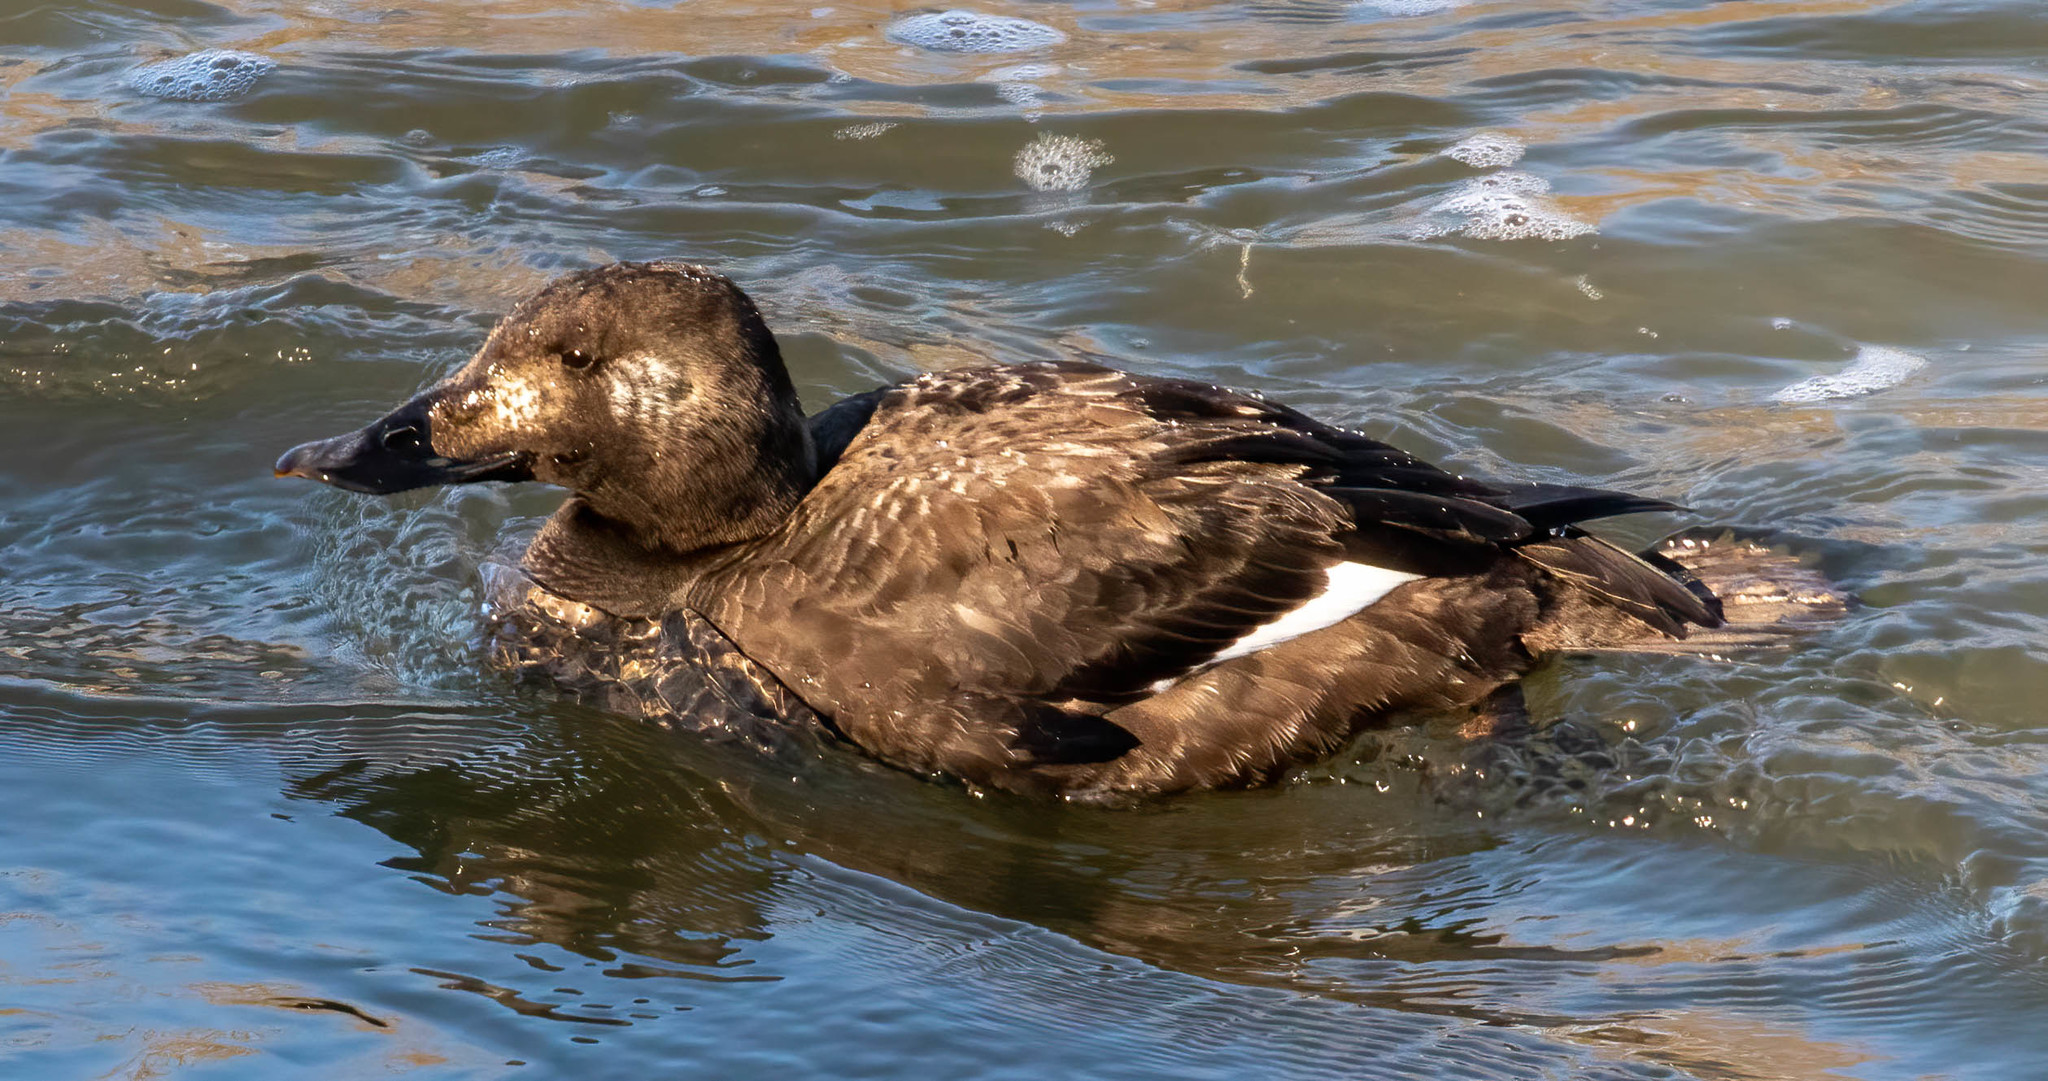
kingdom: Animalia
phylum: Chordata
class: Aves
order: Anseriformes
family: Anatidae
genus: Melanitta
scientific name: Melanitta deglandi
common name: White-winged scoter
